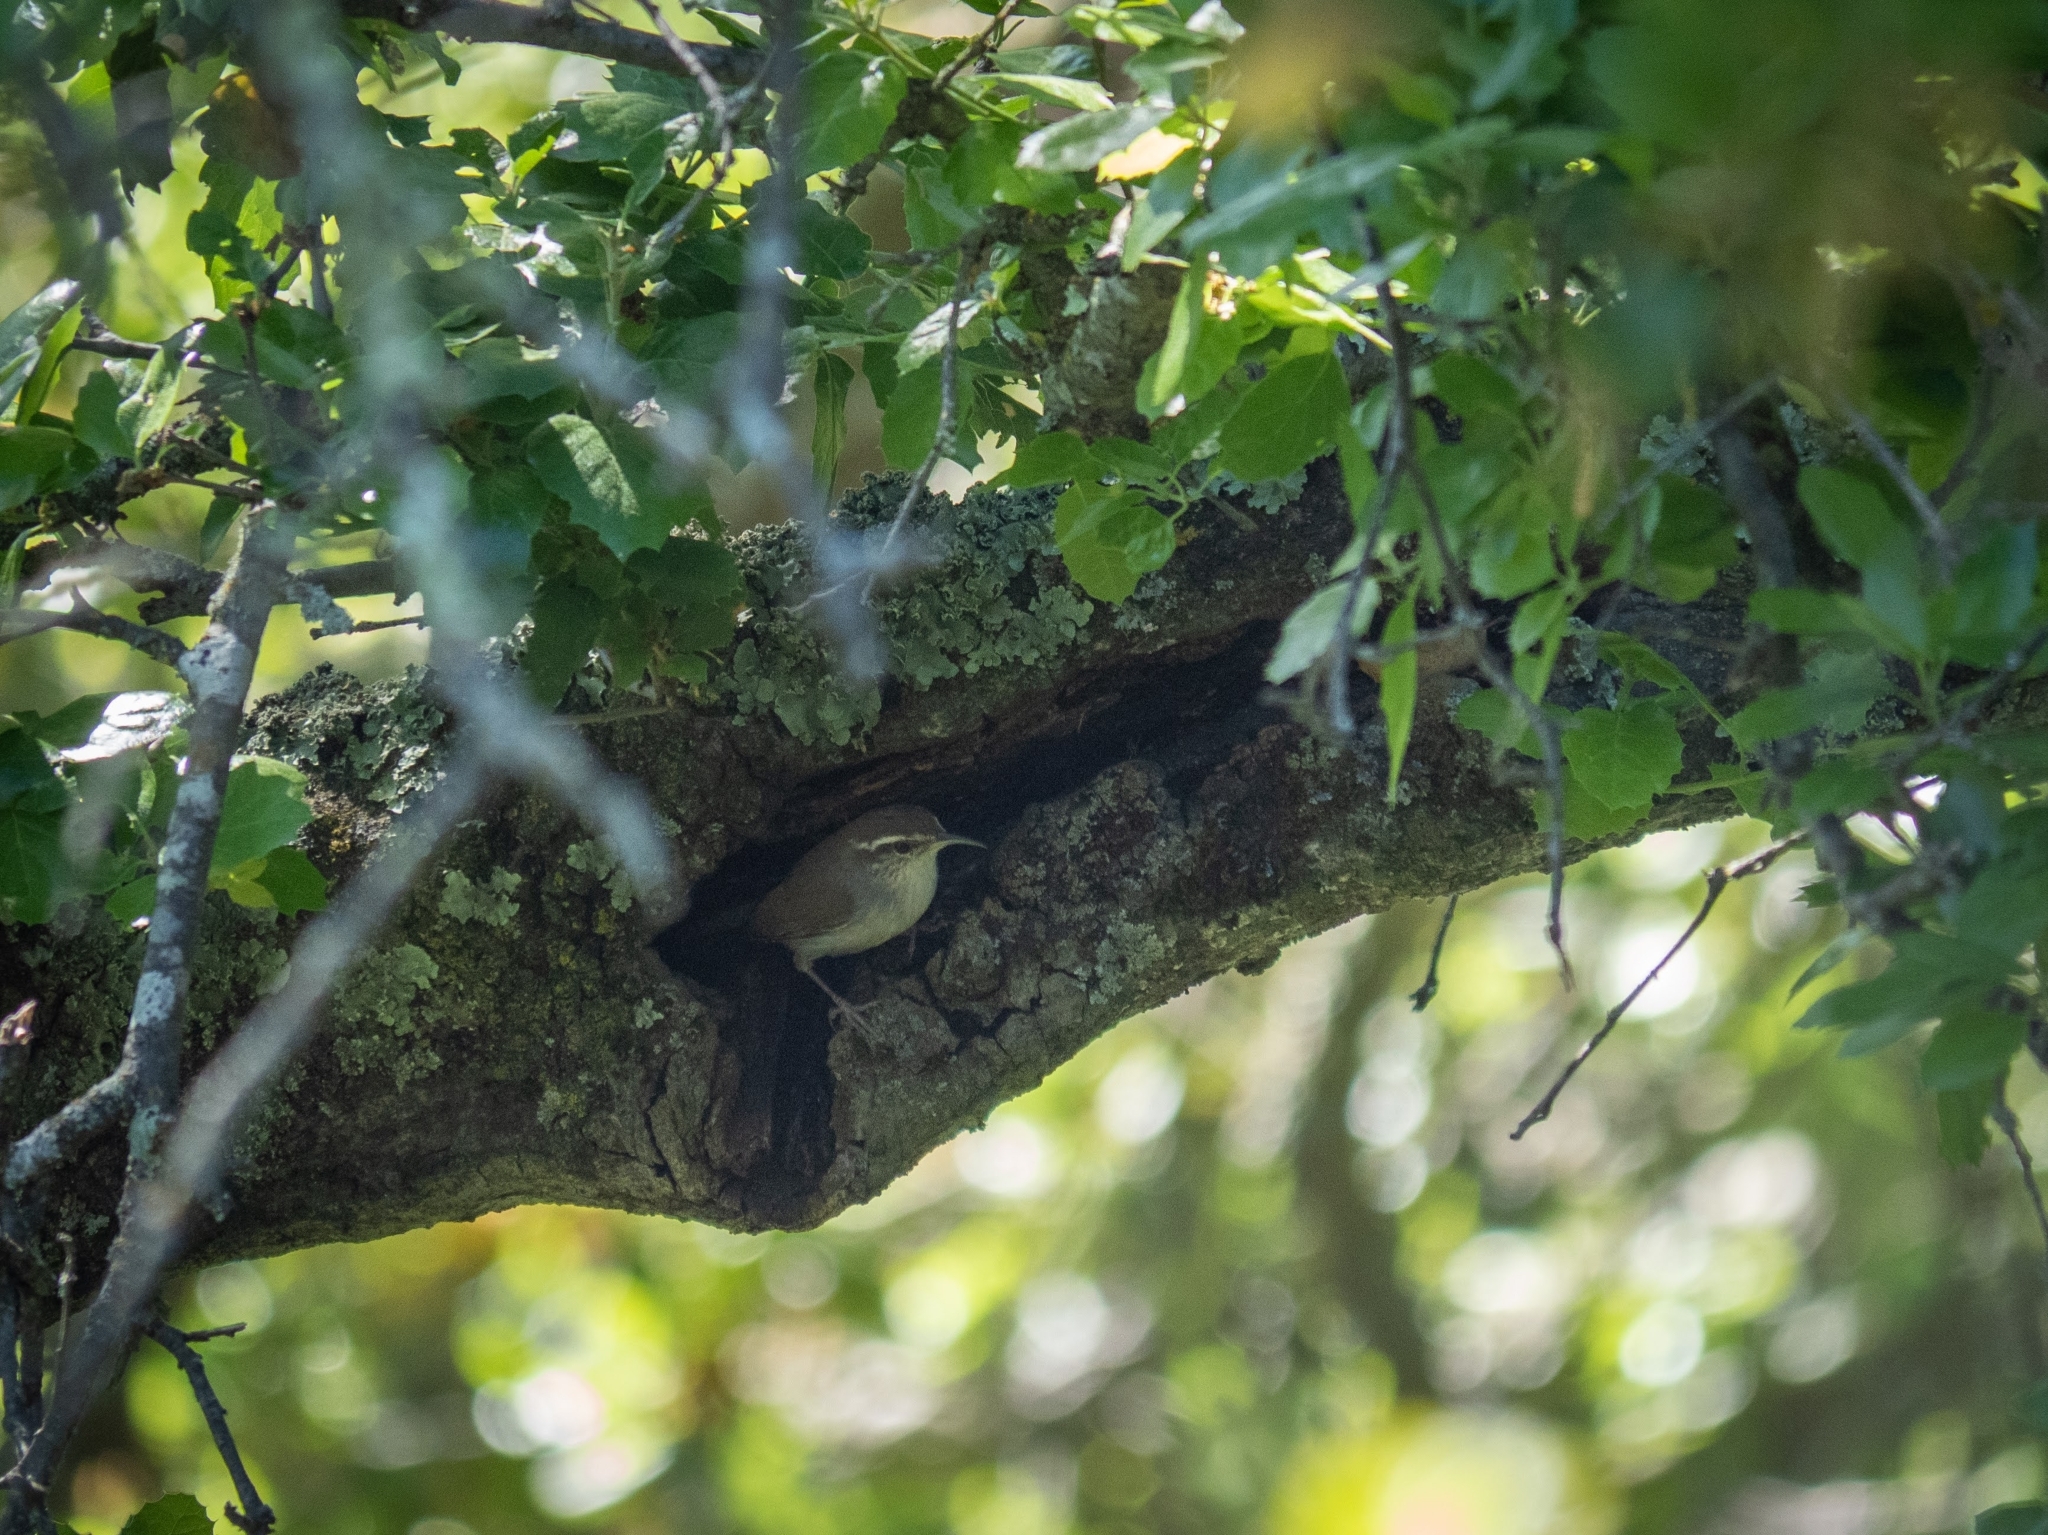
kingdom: Animalia
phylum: Chordata
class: Aves
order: Passeriformes
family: Troglodytidae
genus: Thryomanes
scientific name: Thryomanes bewickii
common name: Bewick's wren
